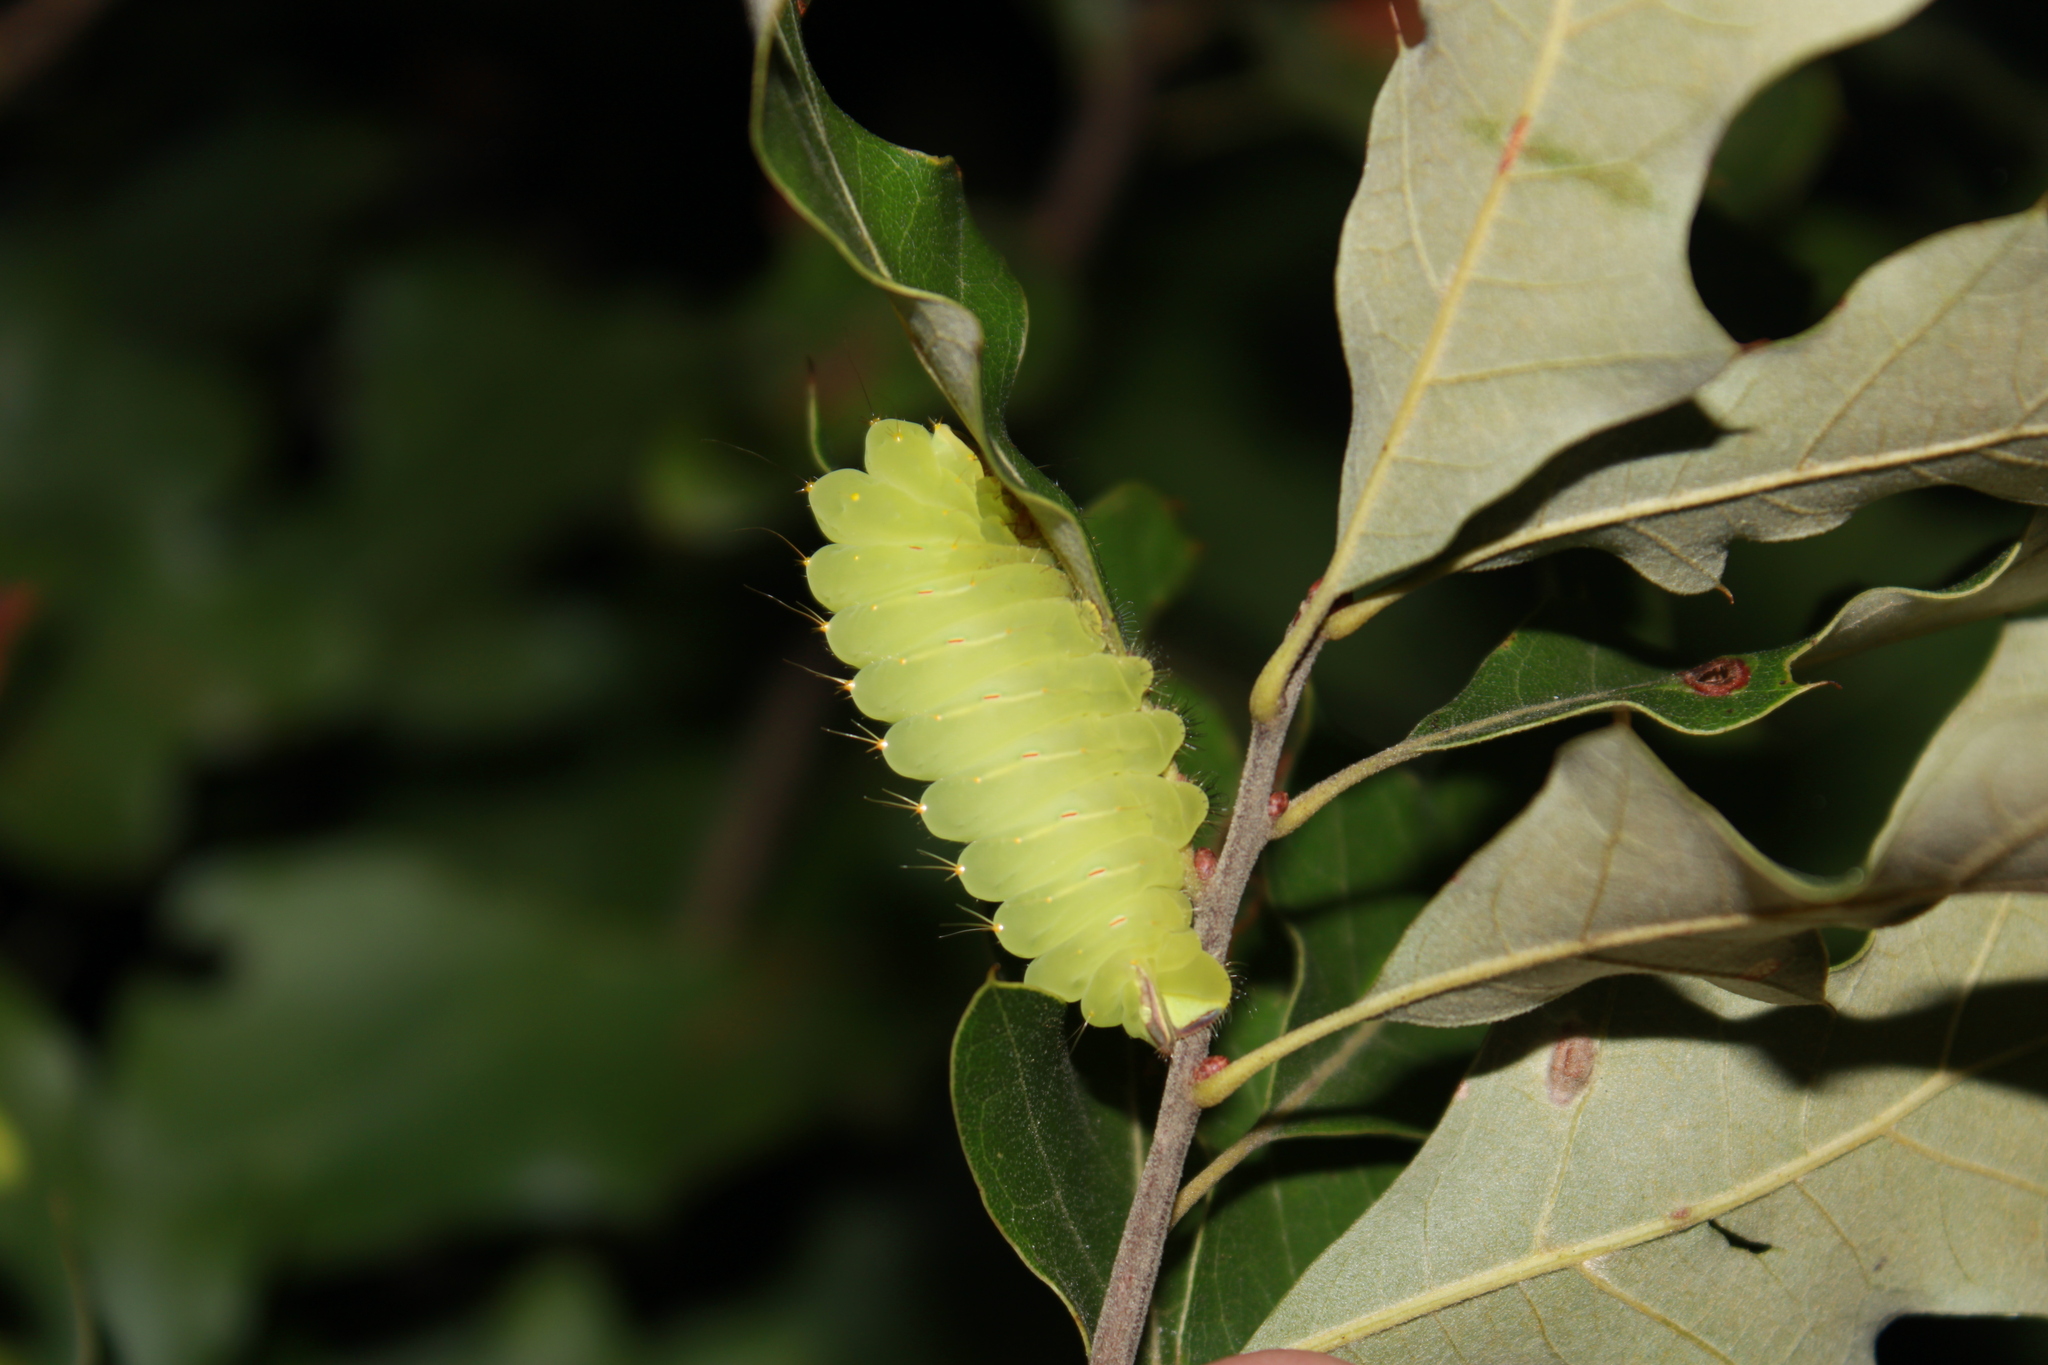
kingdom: Animalia
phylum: Arthropoda
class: Insecta
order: Lepidoptera
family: Saturniidae
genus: Antheraea
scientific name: Antheraea polyphemus
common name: Polyphemus moth
